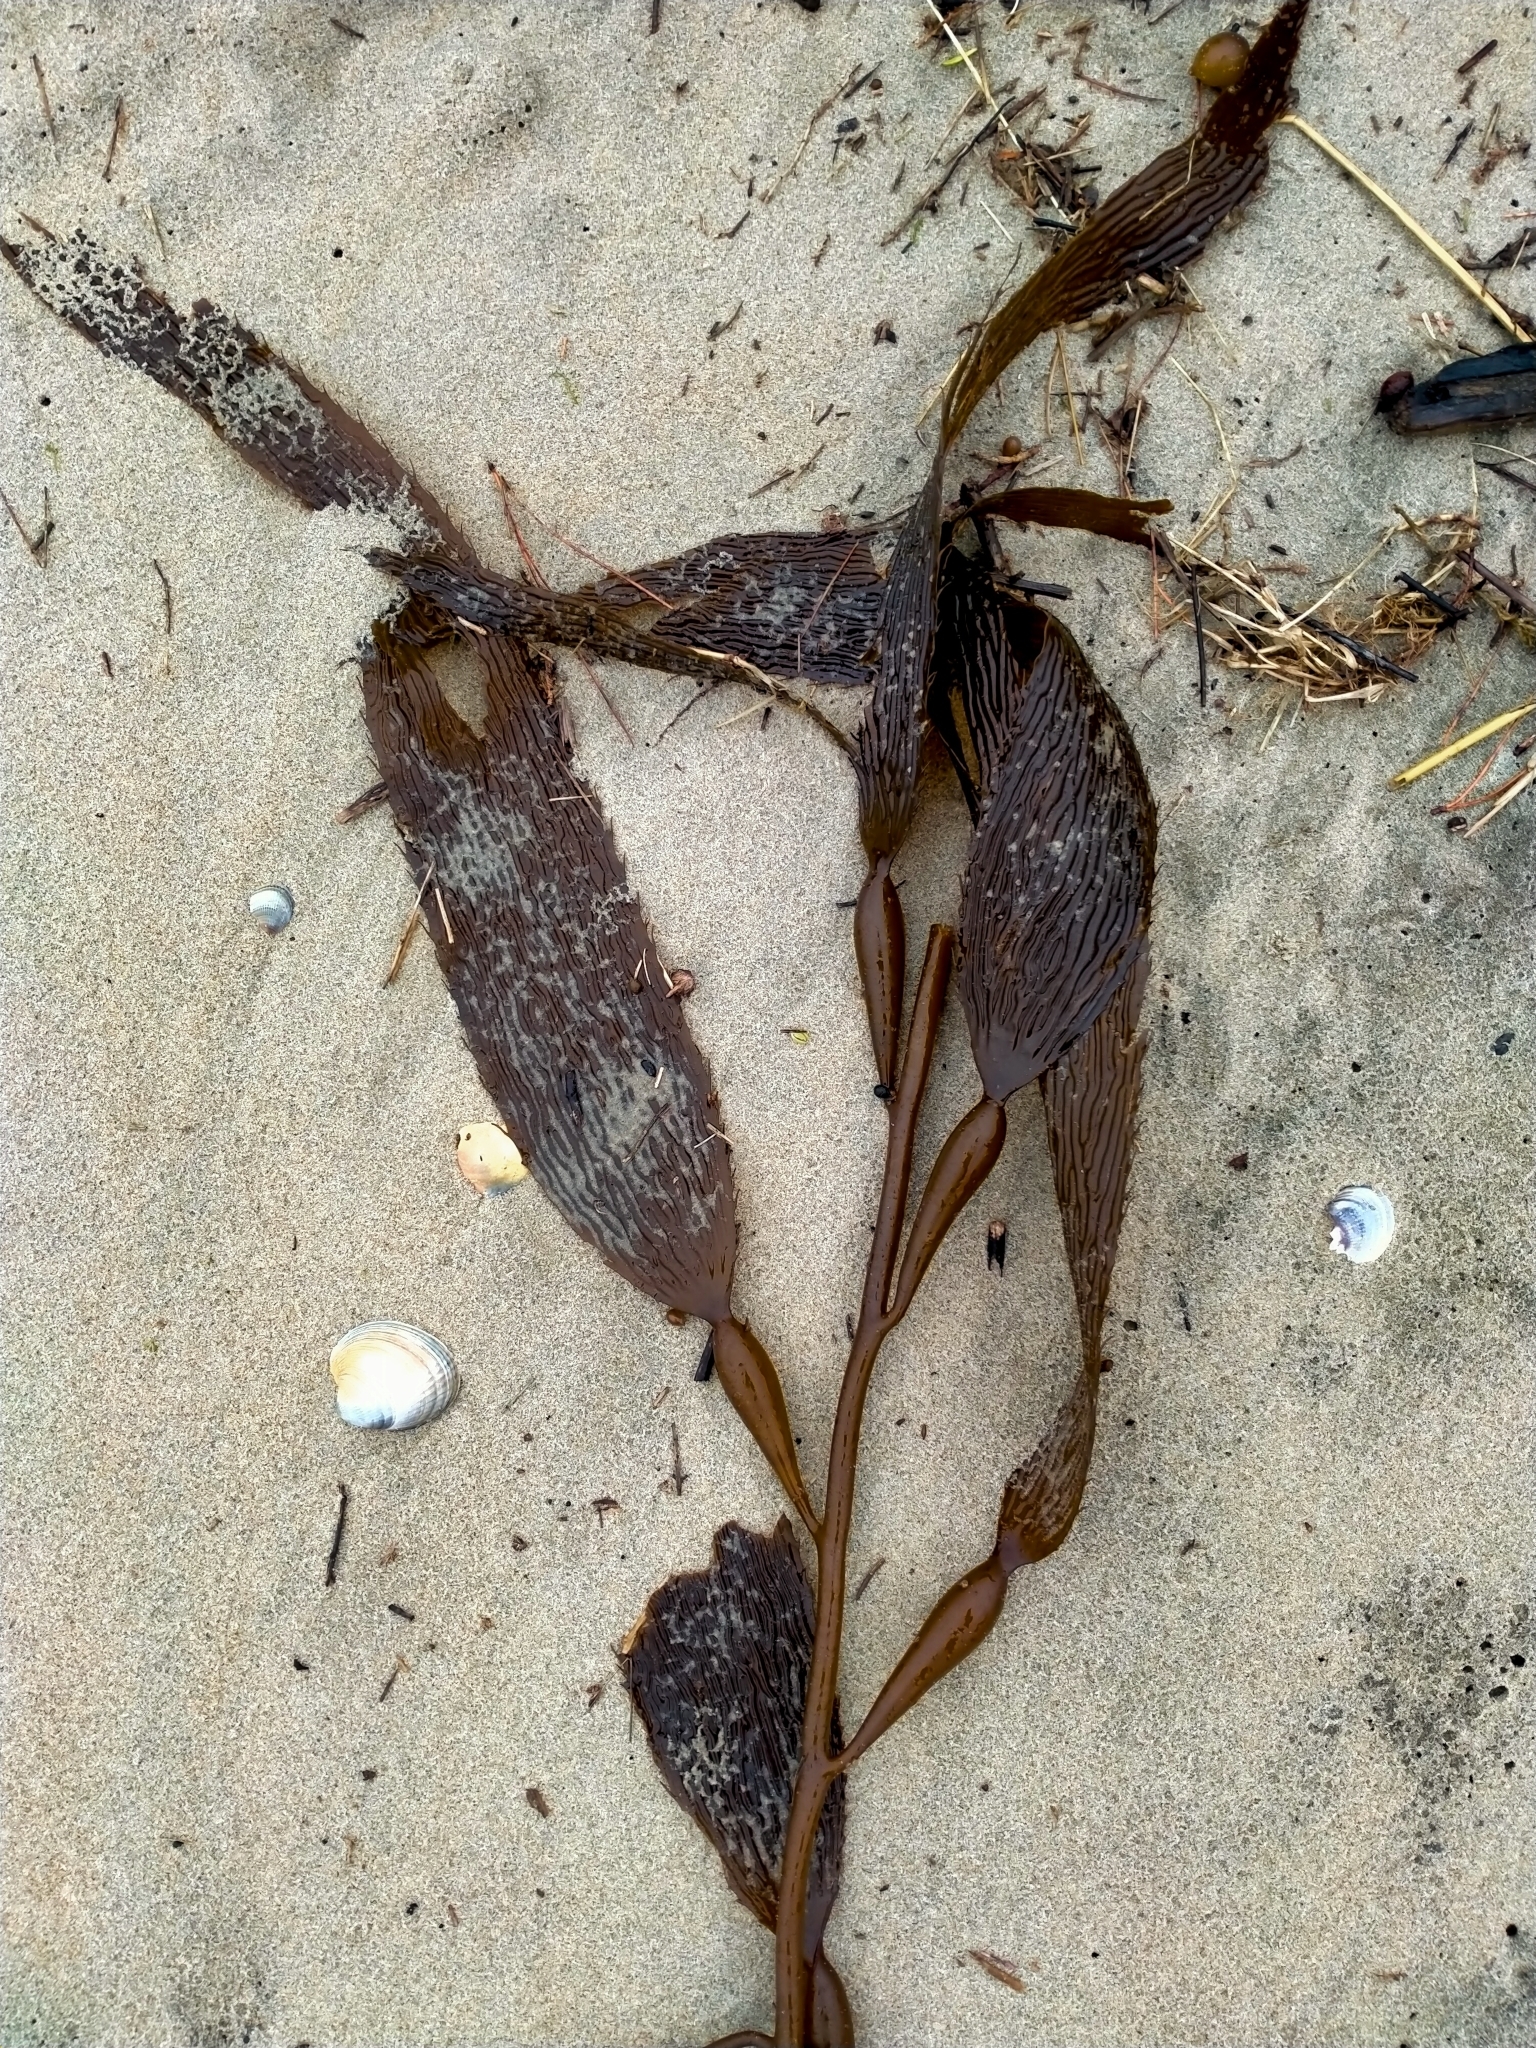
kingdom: Chromista
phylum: Ochrophyta
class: Phaeophyceae
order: Laminariales
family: Laminariaceae
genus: Macrocystis
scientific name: Macrocystis pyrifera
